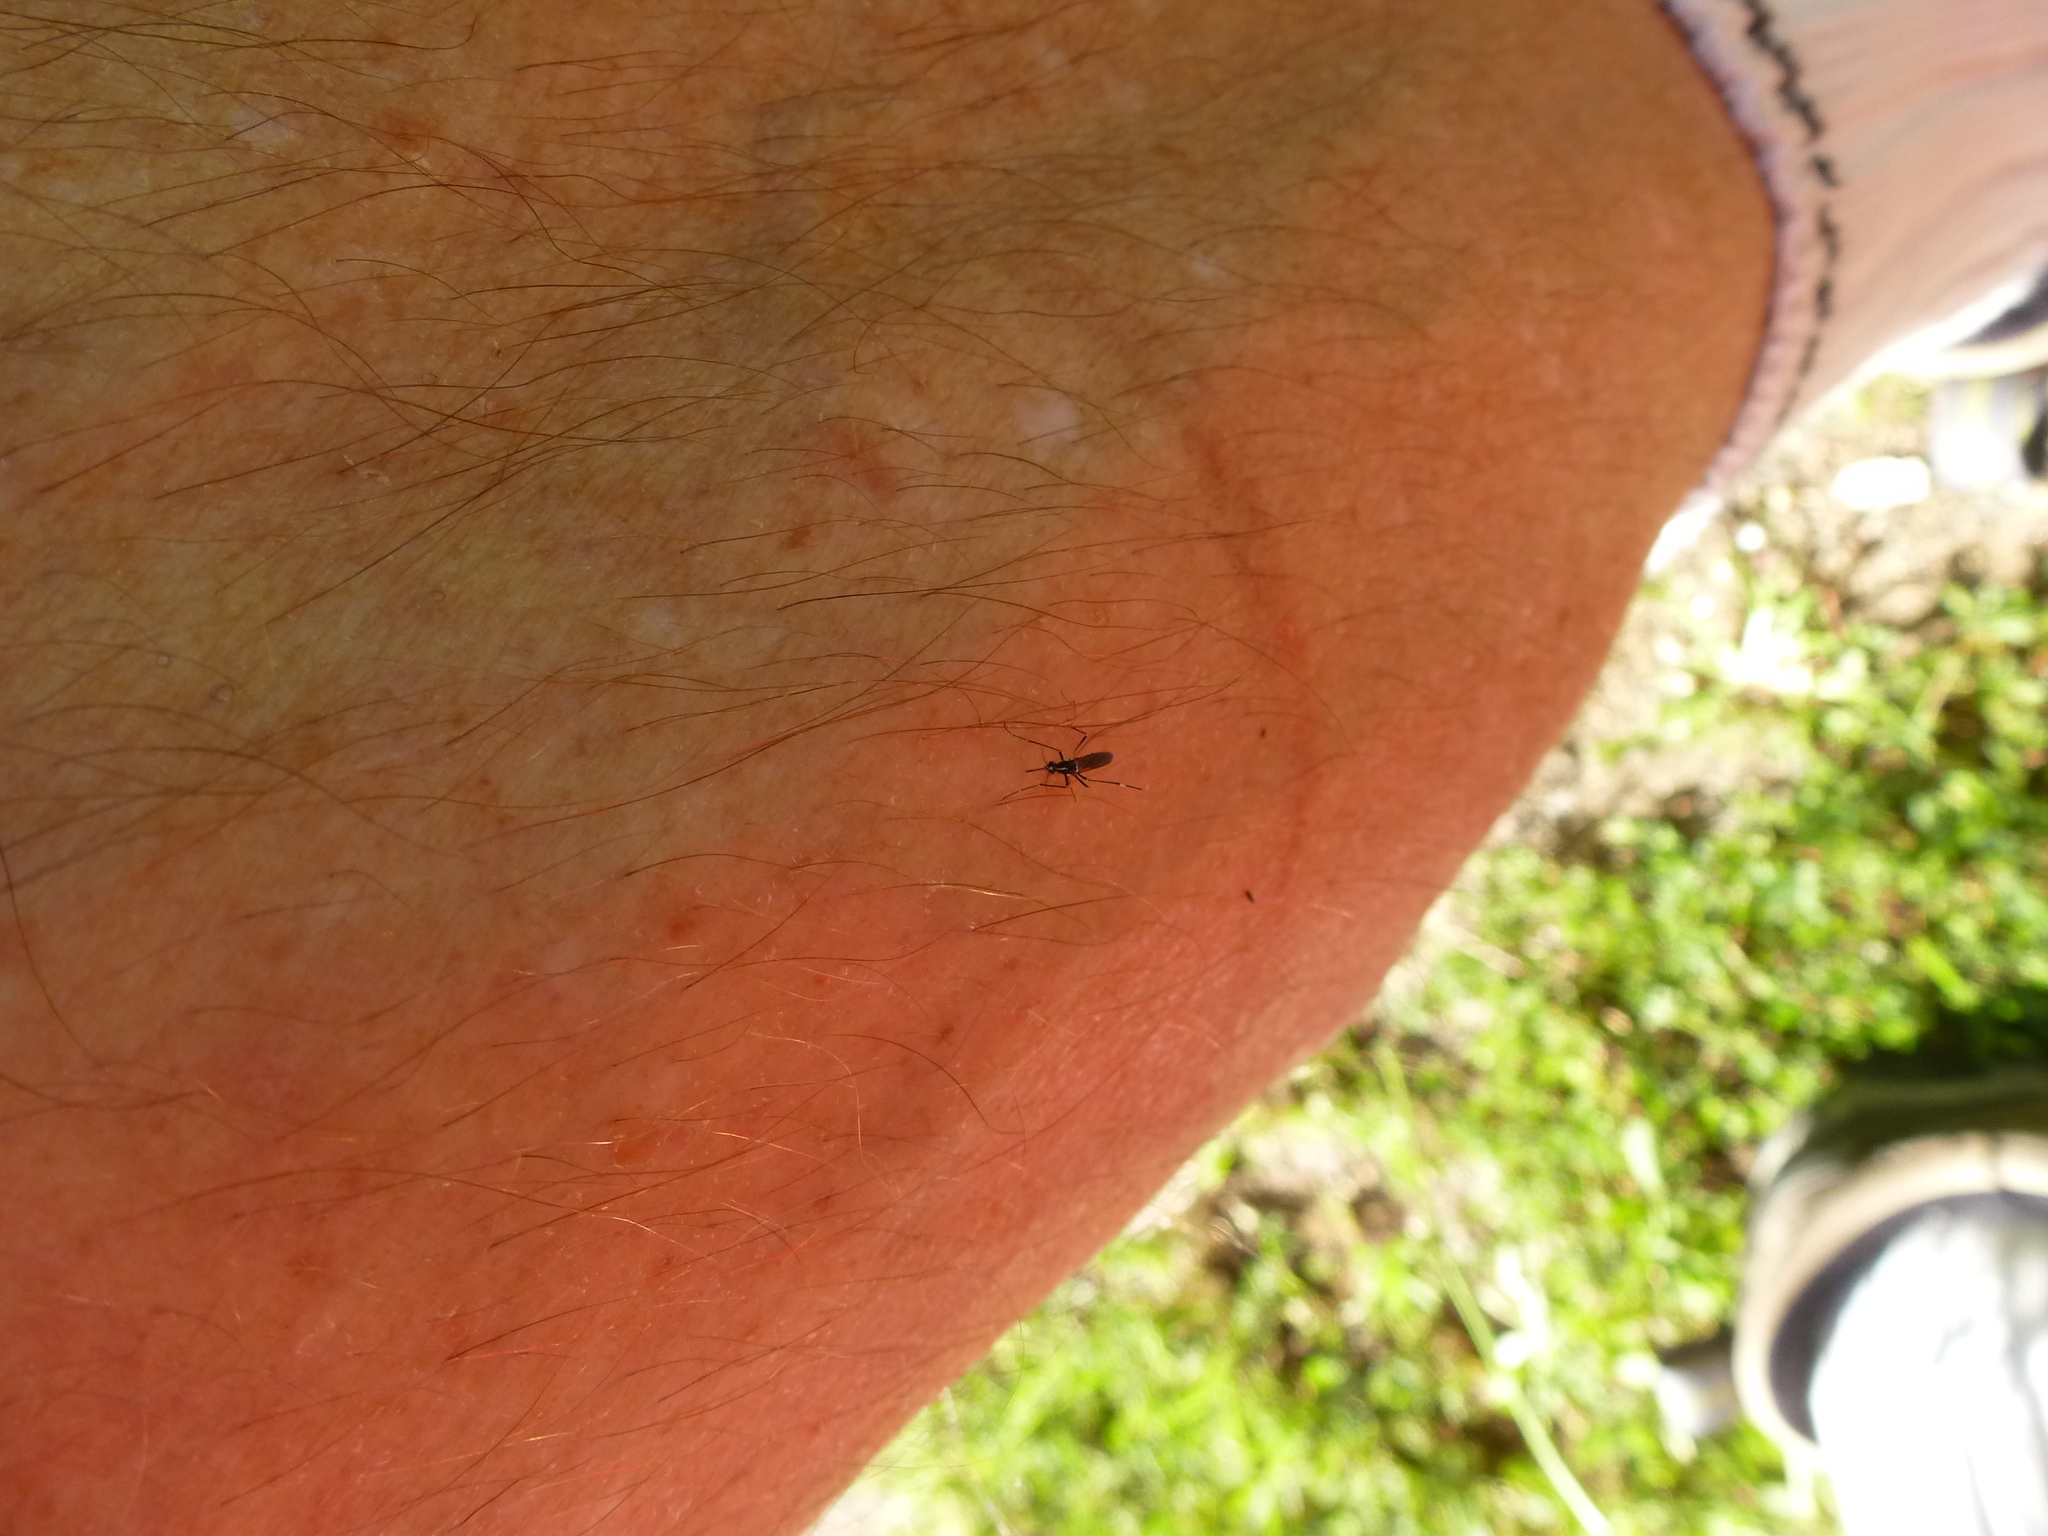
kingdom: Animalia
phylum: Arthropoda
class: Insecta
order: Diptera
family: Culicidae
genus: Aedes
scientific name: Aedes albopictus
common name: Tiger mosquito
